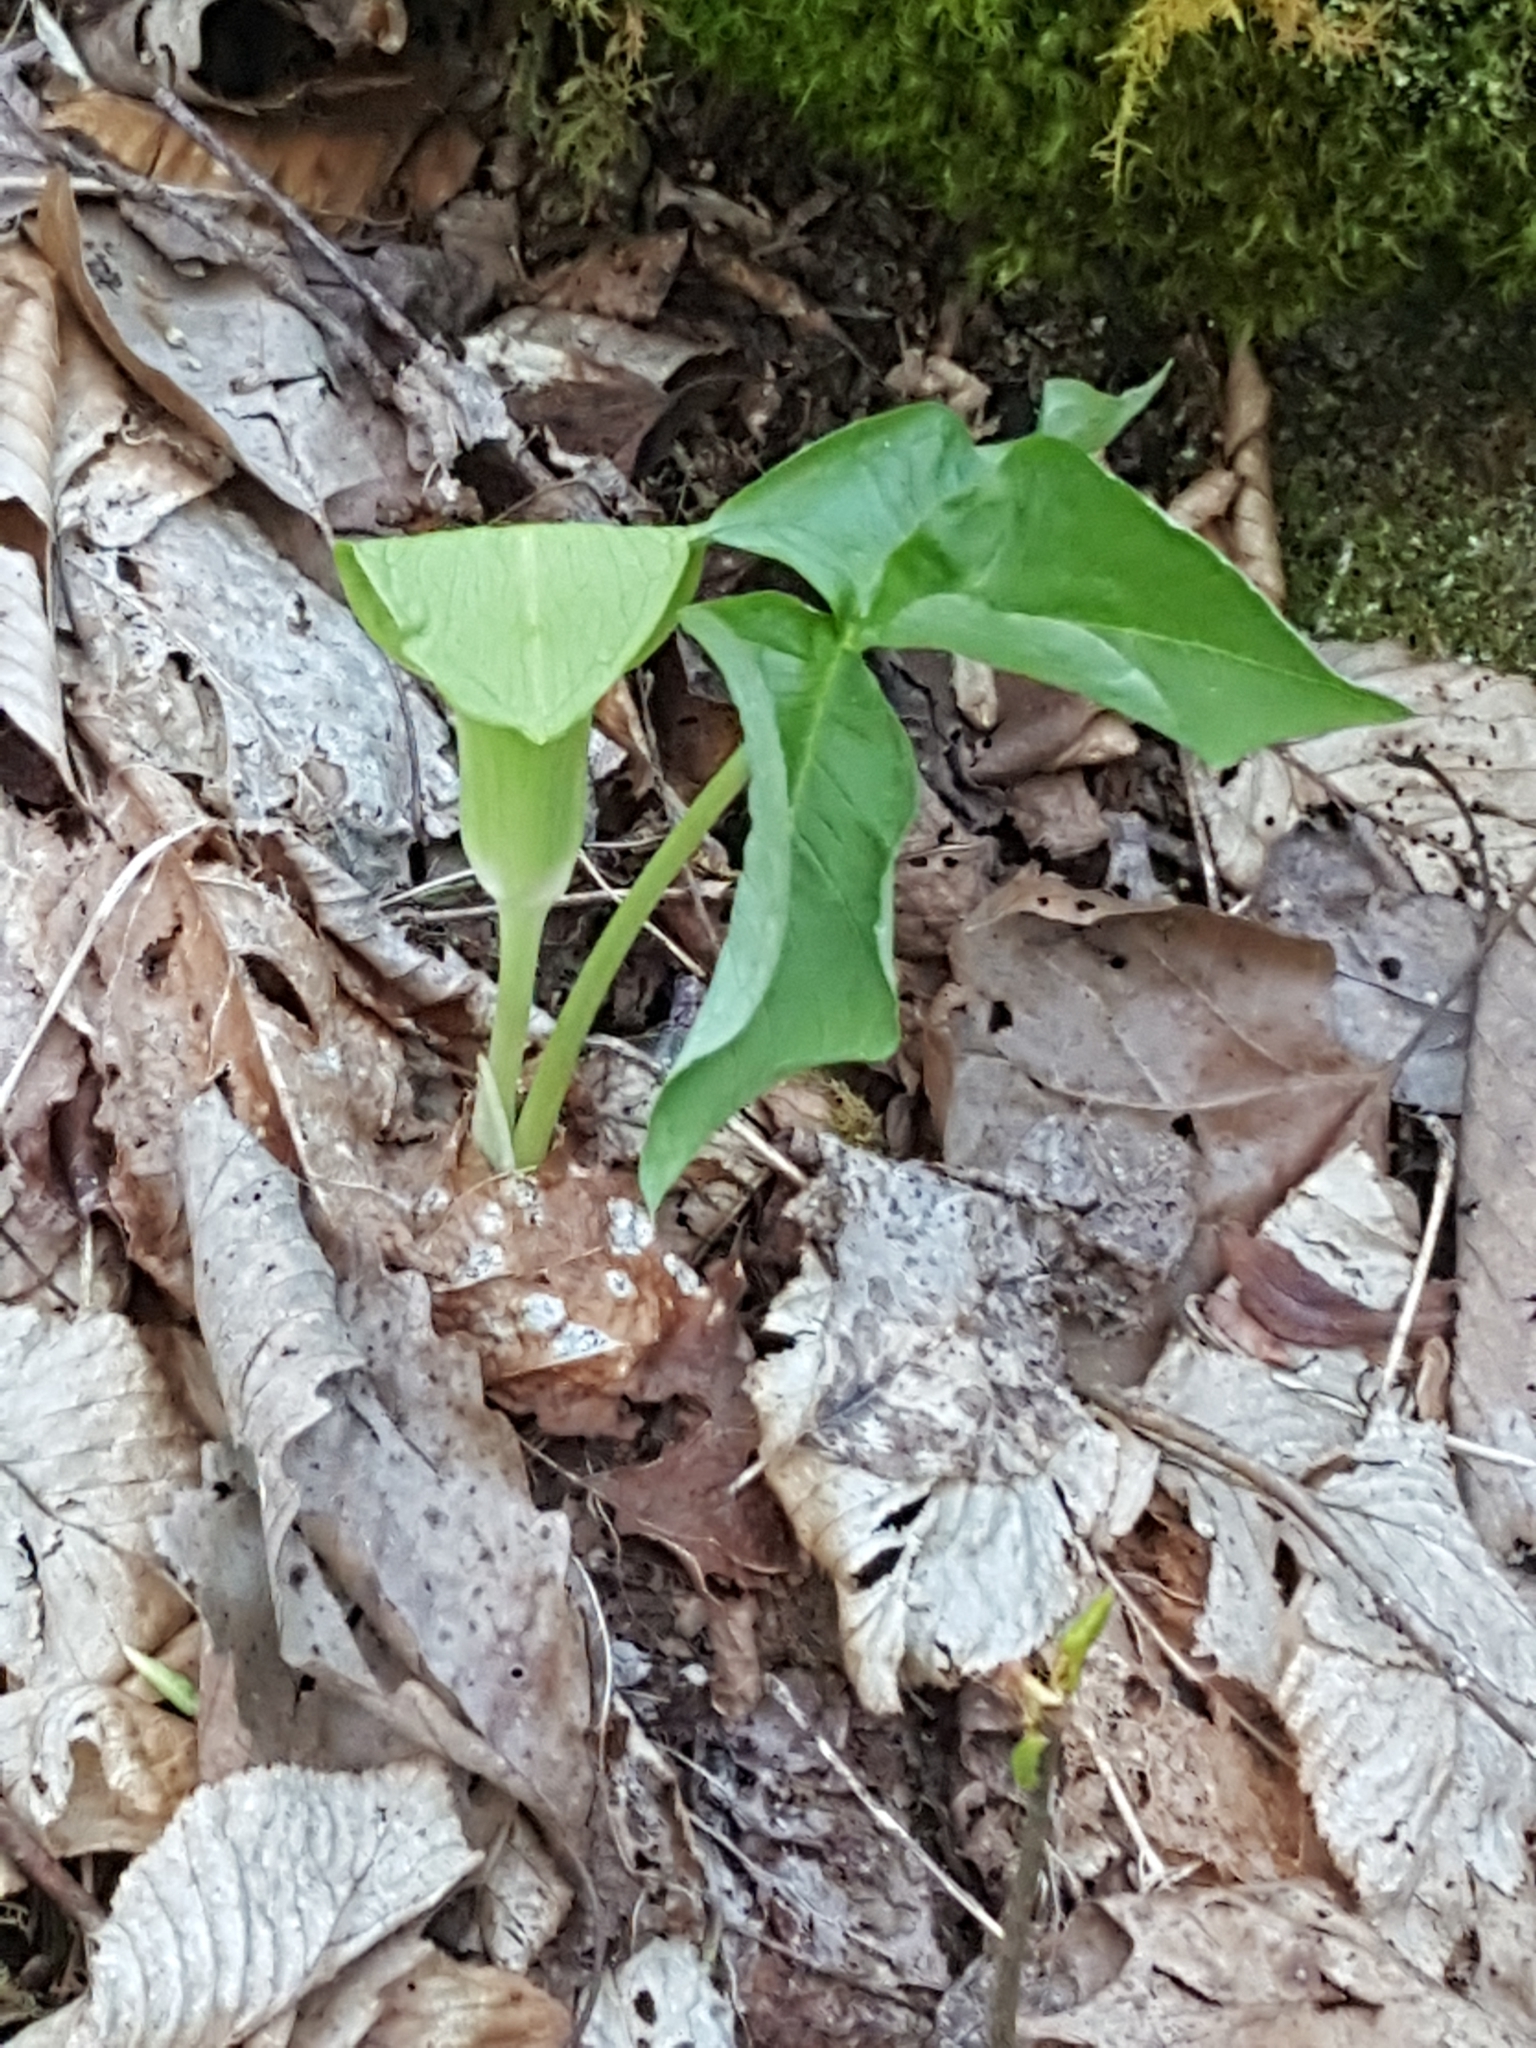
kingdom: Plantae
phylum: Tracheophyta
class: Liliopsida
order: Alismatales
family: Araceae
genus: Arisaema
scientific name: Arisaema triphyllum
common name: Jack-in-the-pulpit
